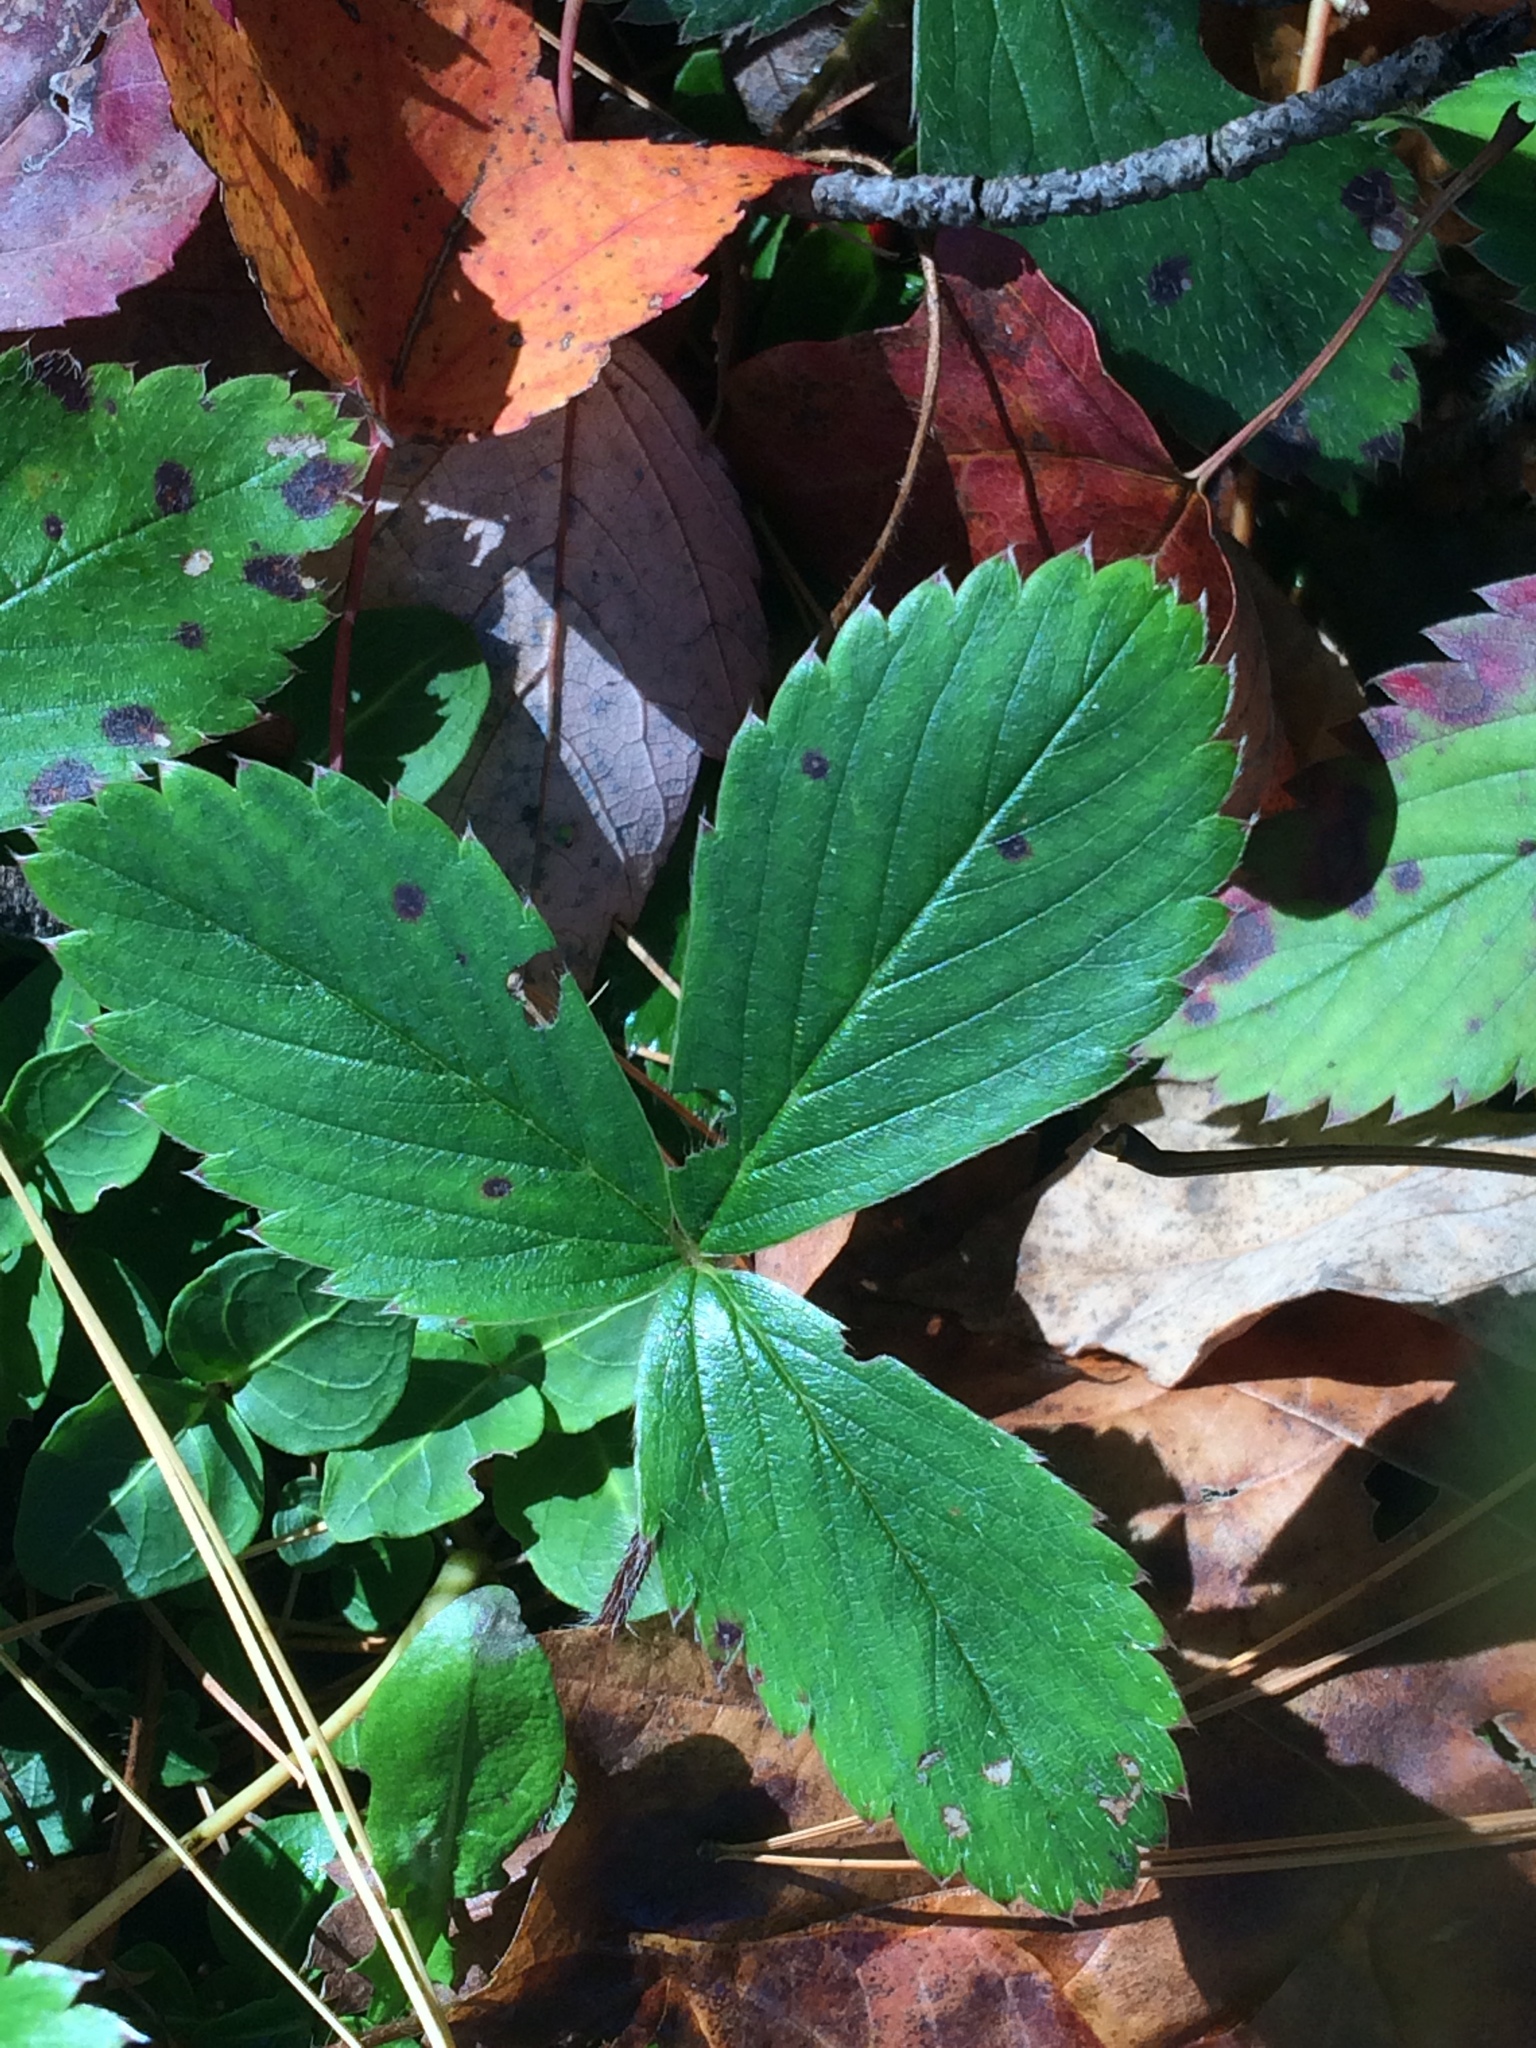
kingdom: Plantae
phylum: Tracheophyta
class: Magnoliopsida
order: Rosales
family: Rosaceae
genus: Fragaria
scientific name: Fragaria virginiana
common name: Thickleaved wild strawberry
